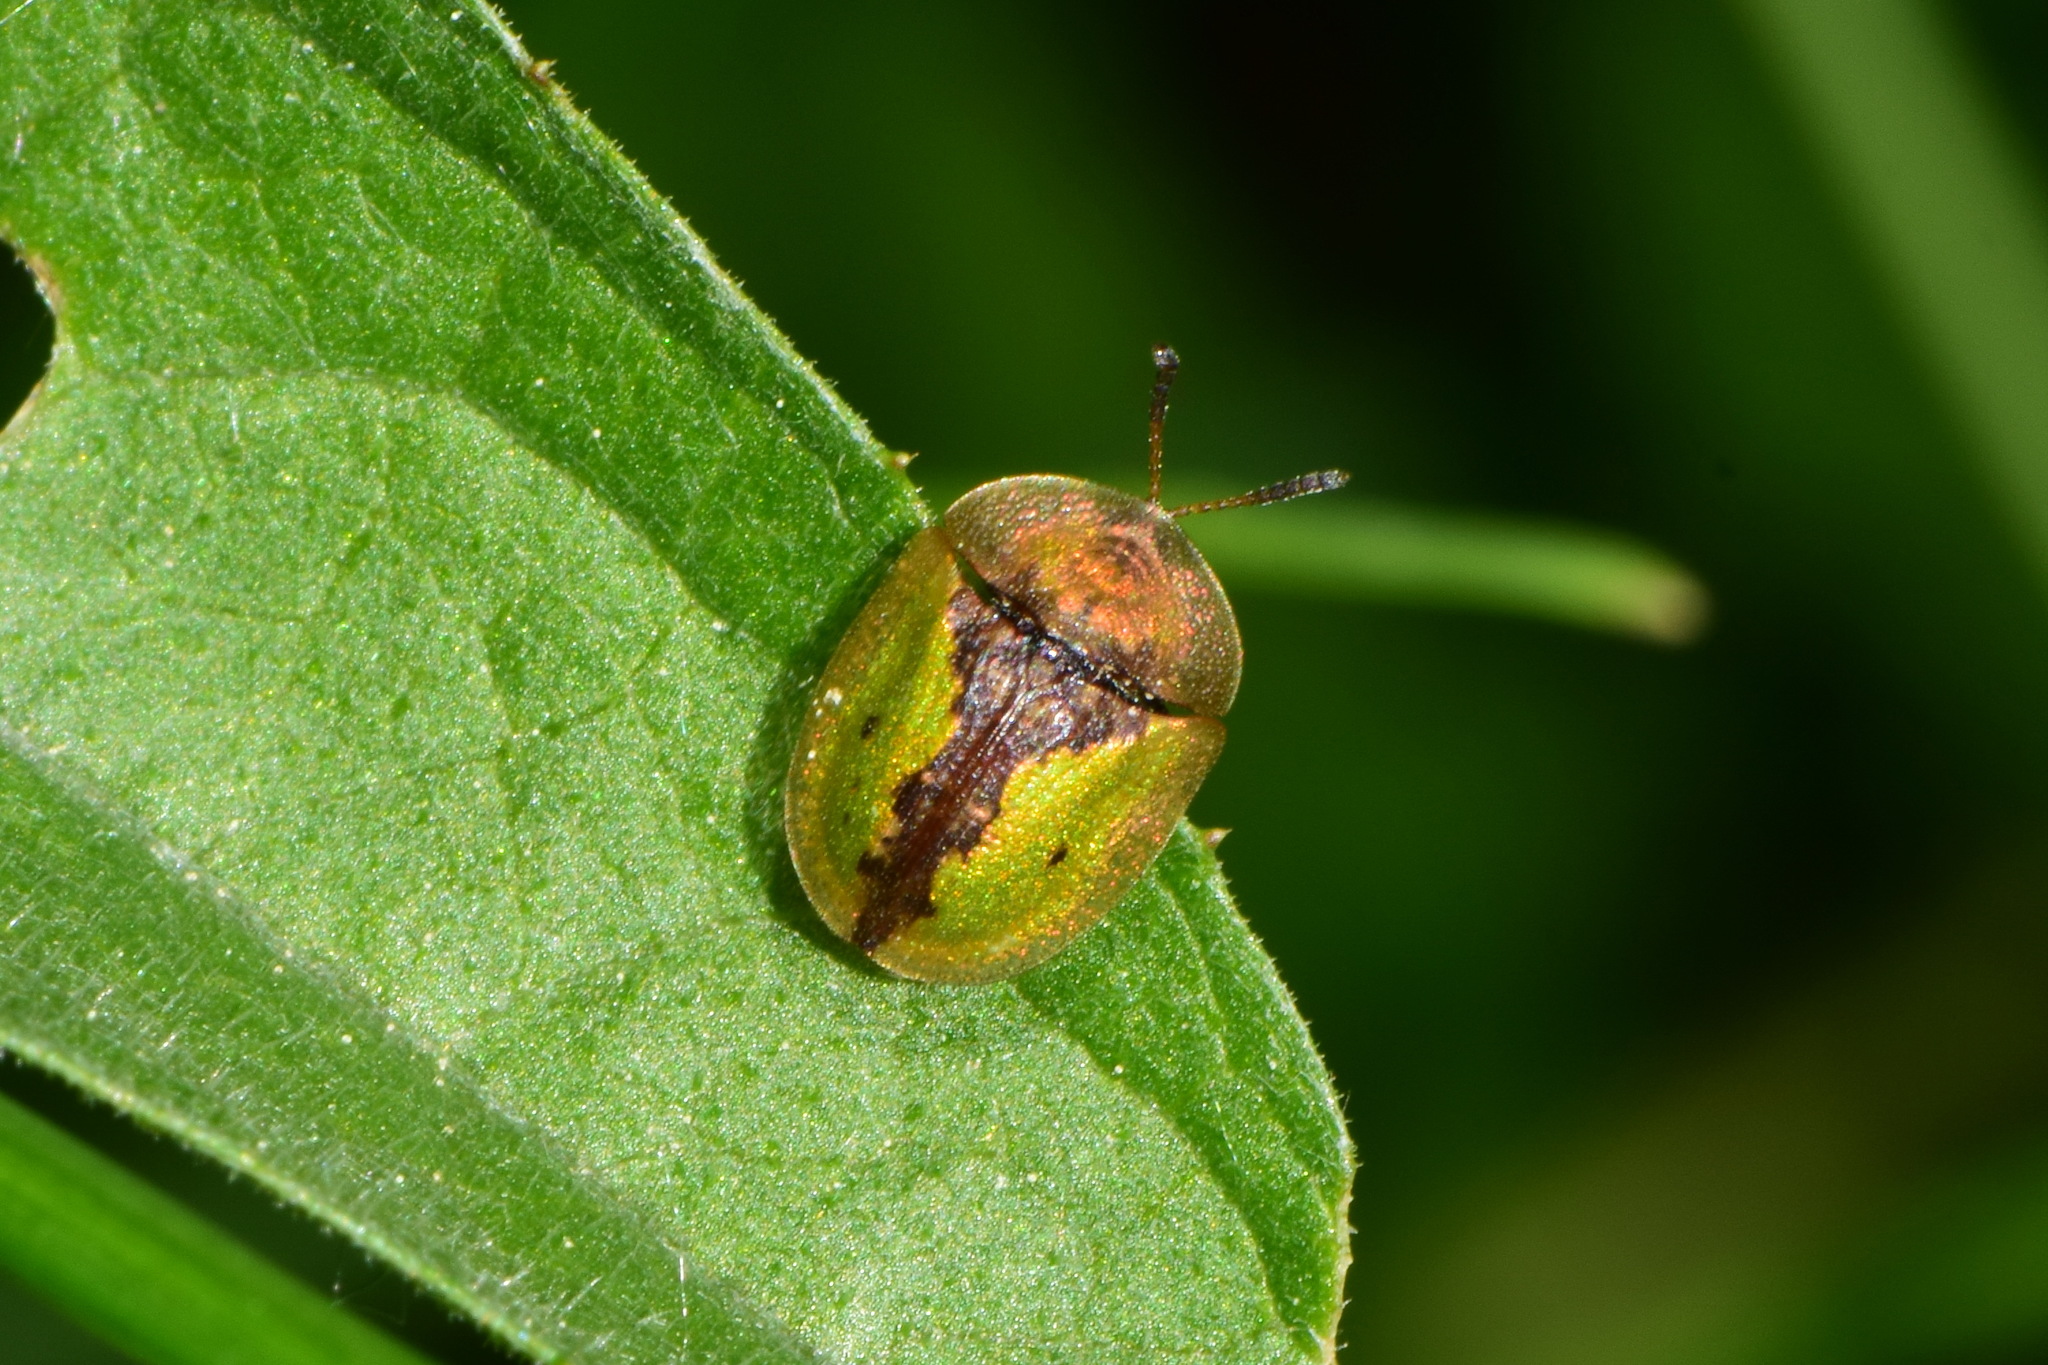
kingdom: Animalia
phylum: Arthropoda
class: Insecta
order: Coleoptera
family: Chrysomelidae
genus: Cassida
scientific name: Cassida vibex
